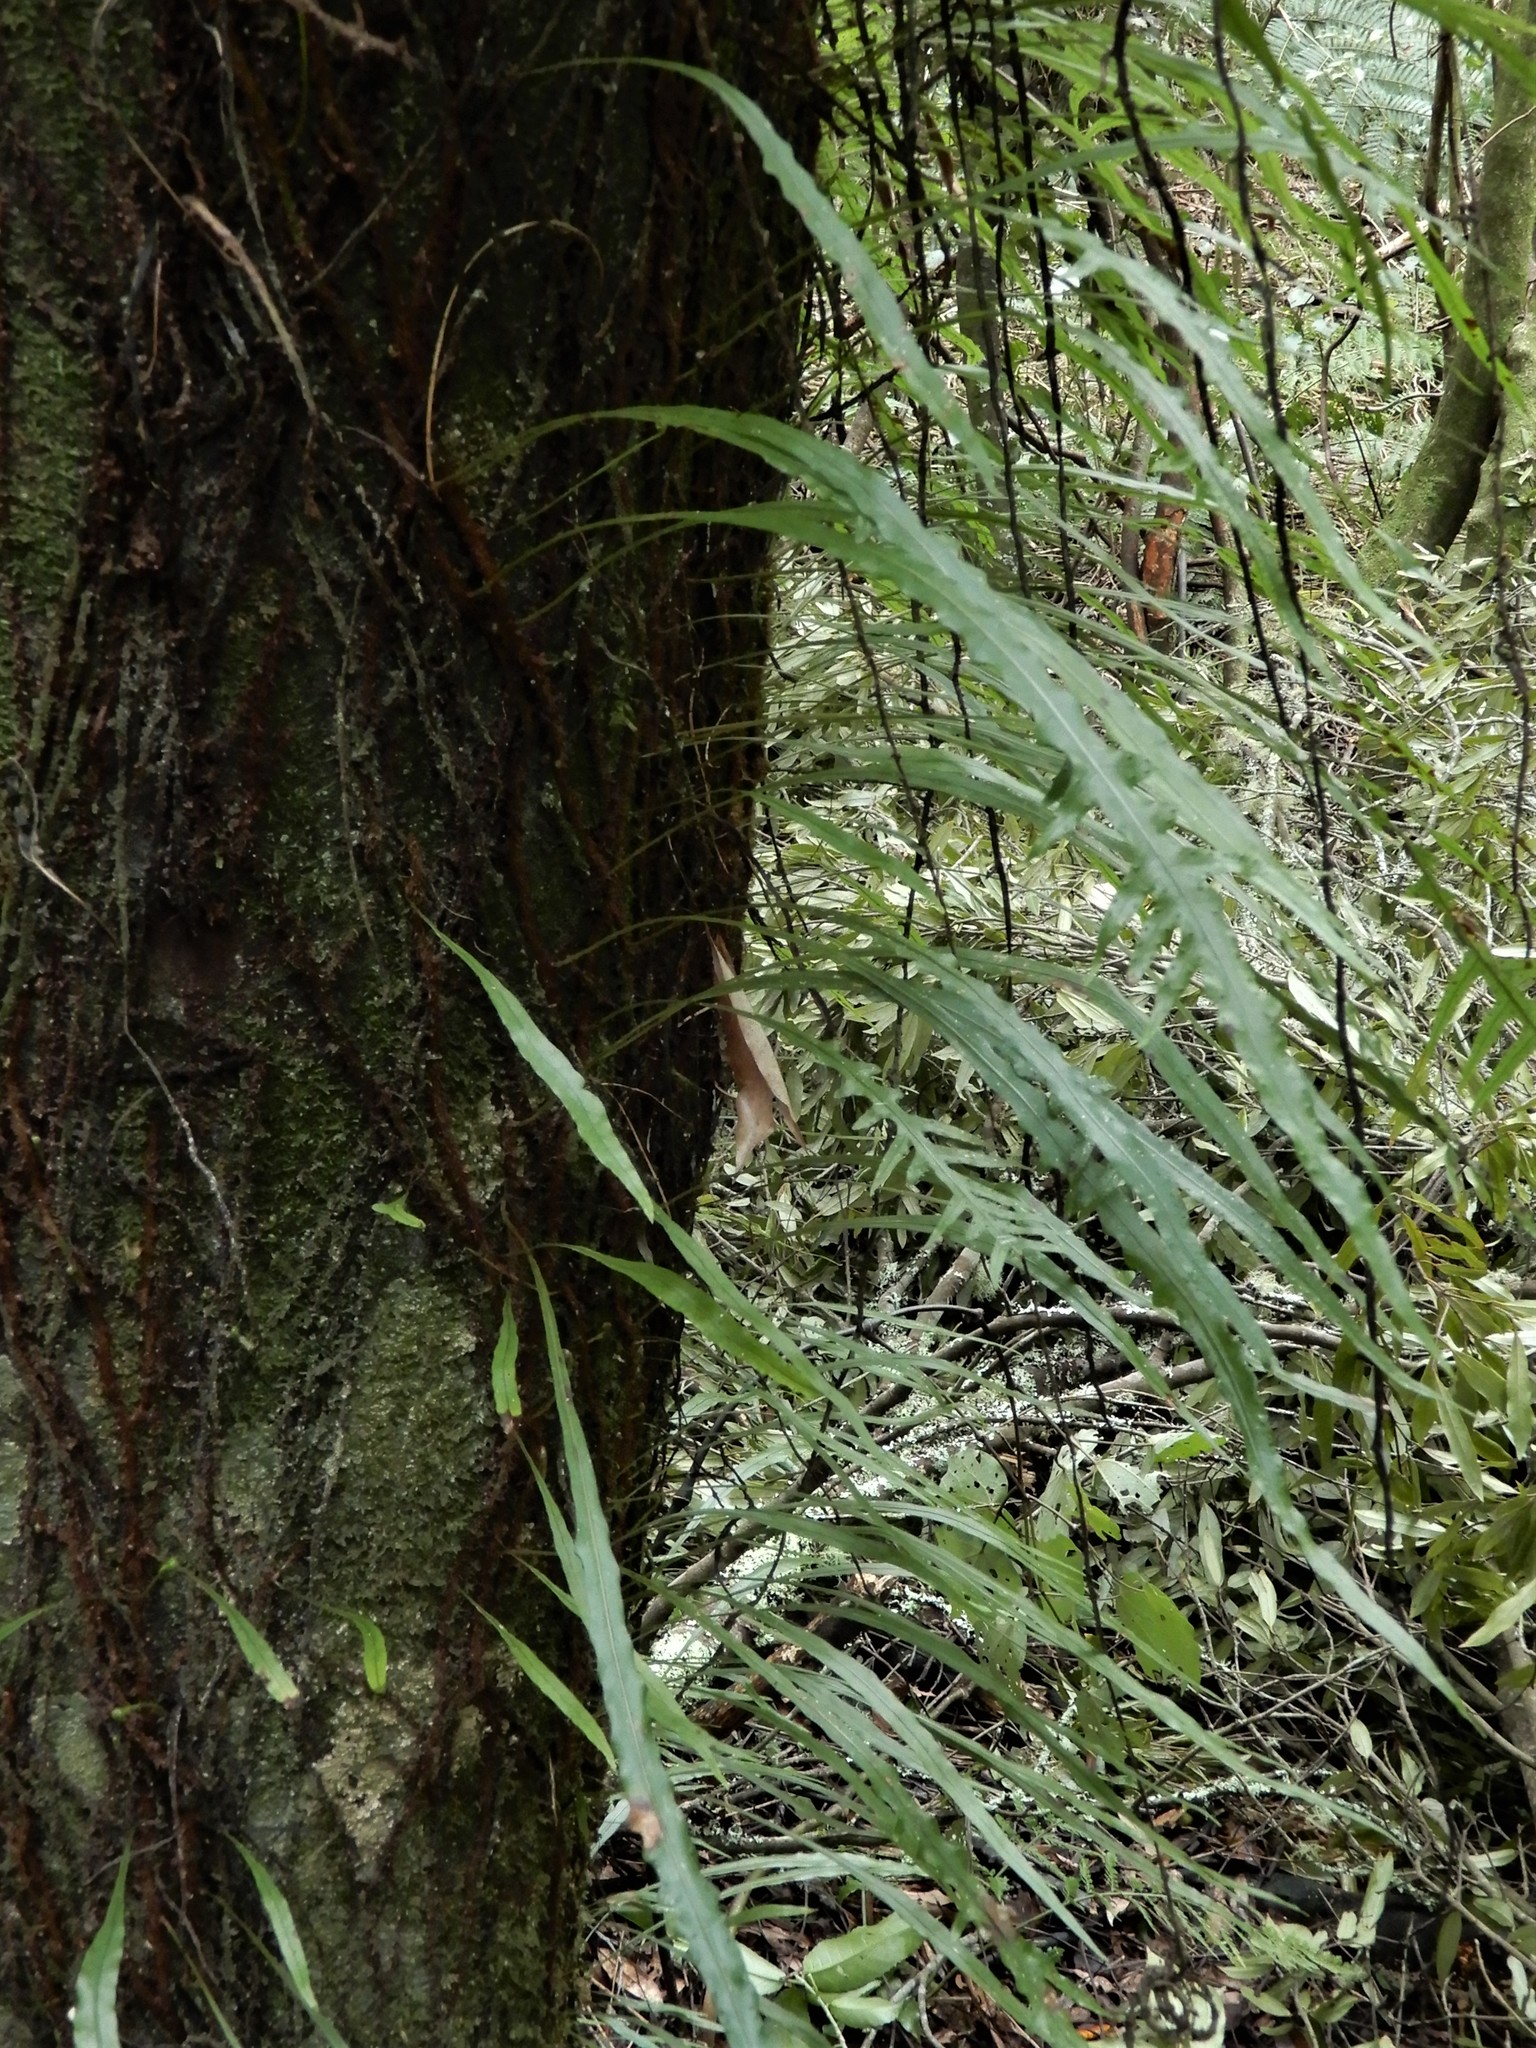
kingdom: Plantae
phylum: Tracheophyta
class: Polypodiopsida
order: Polypodiales
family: Polypodiaceae
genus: Lecanopteris
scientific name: Lecanopteris scandens
